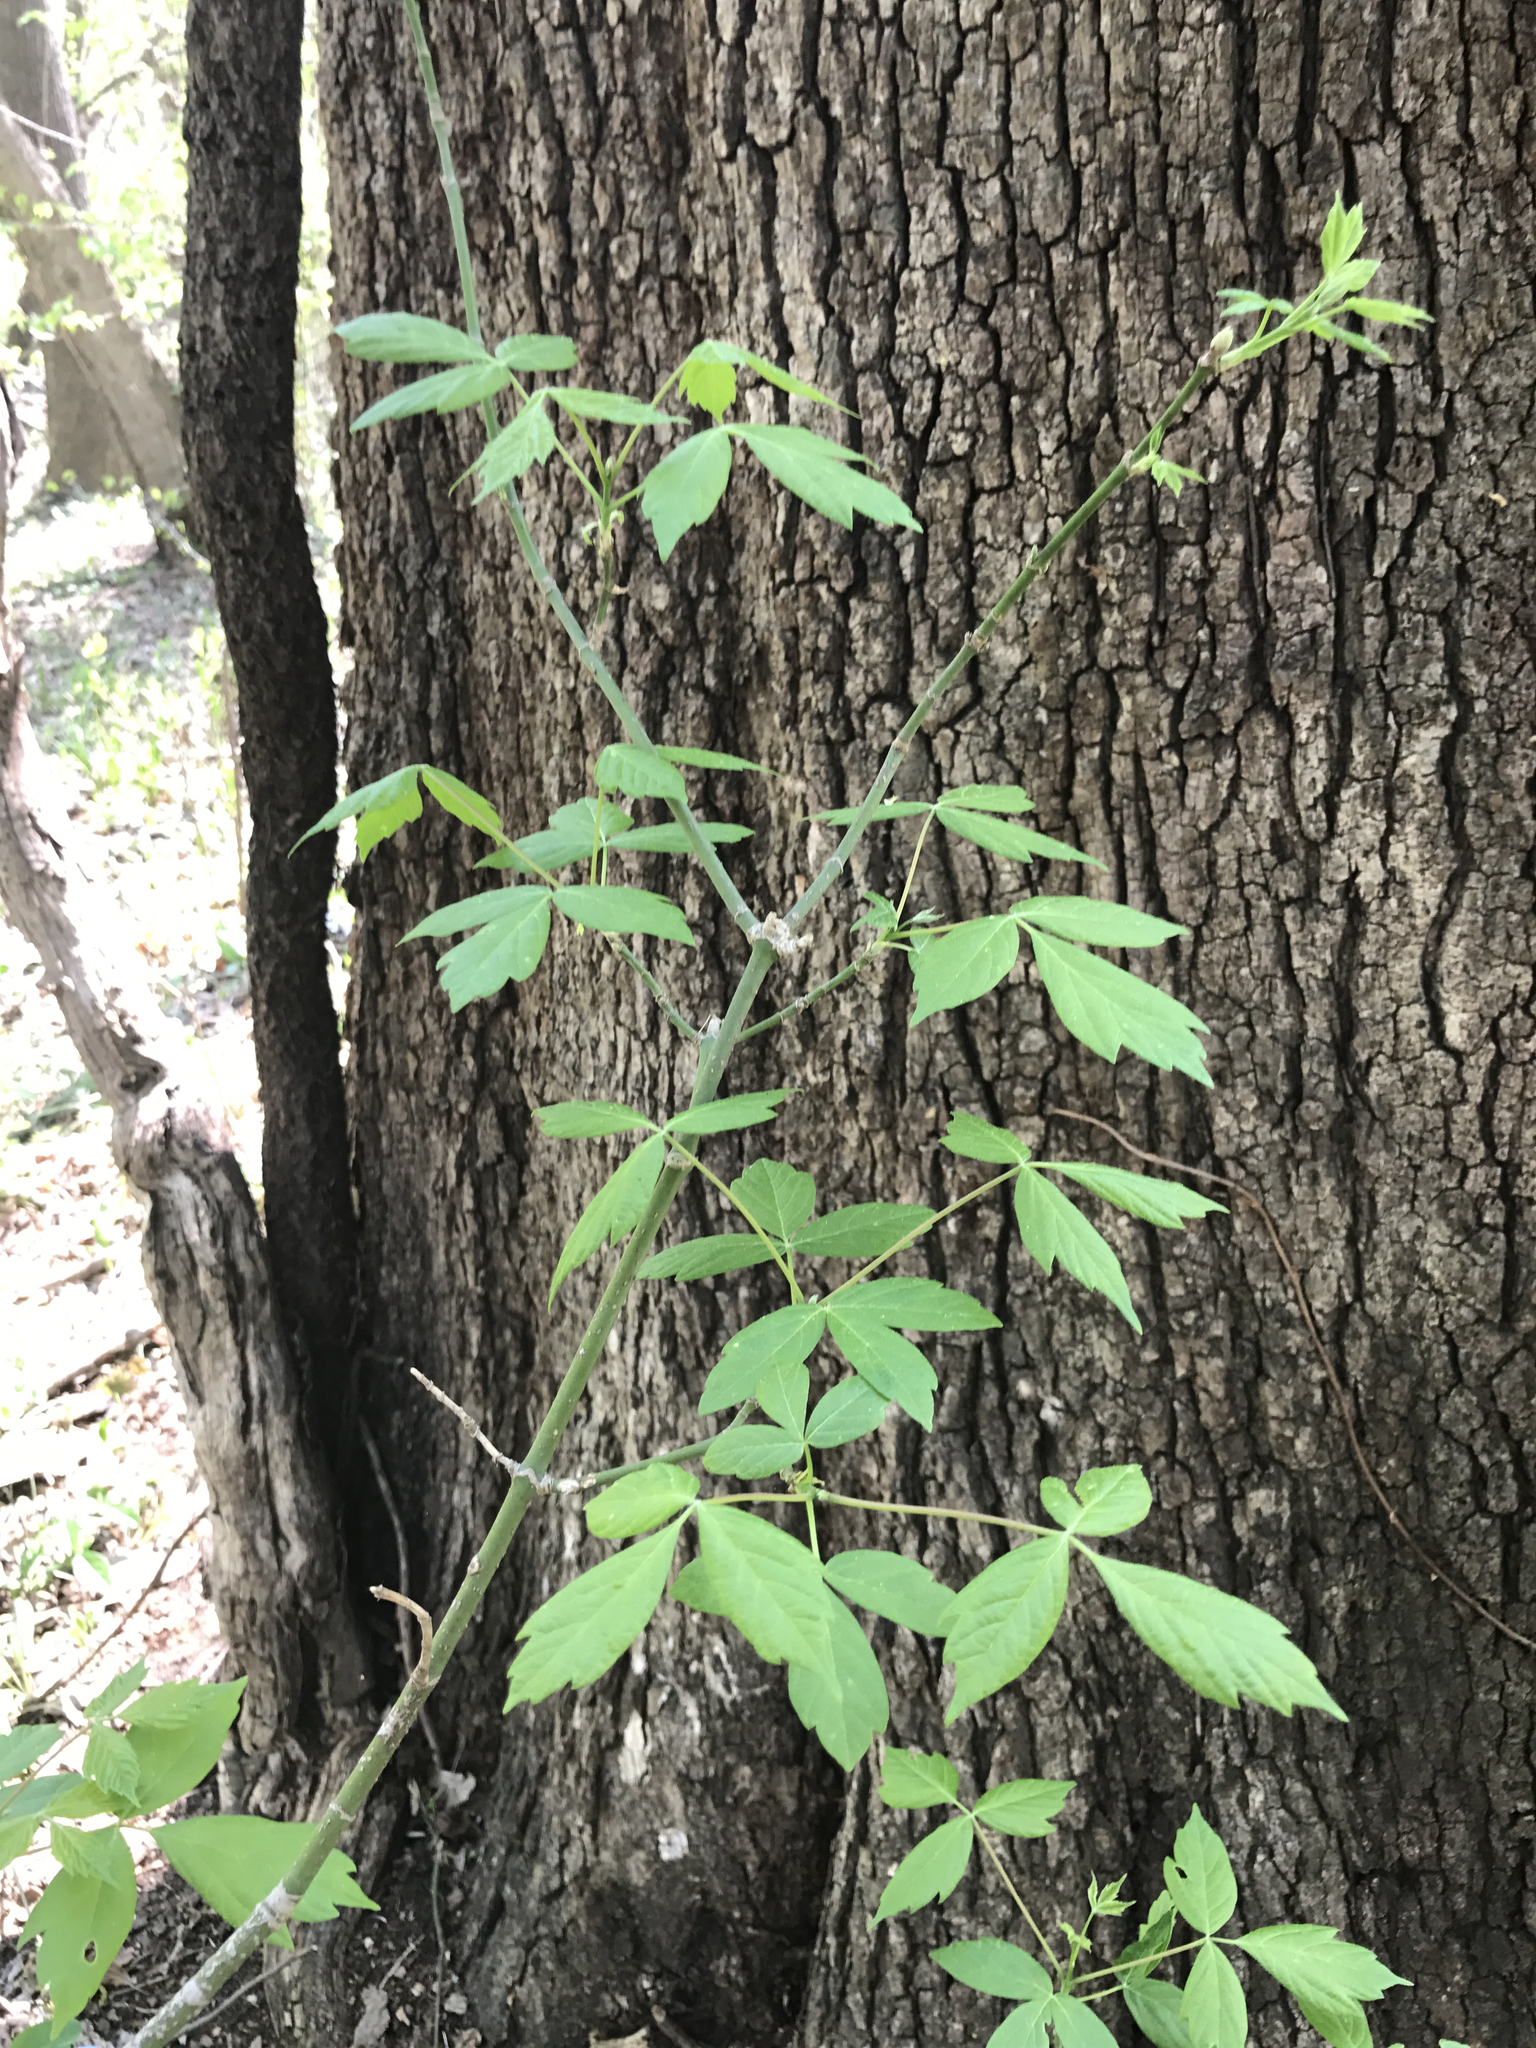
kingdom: Plantae
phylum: Tracheophyta
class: Magnoliopsida
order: Sapindales
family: Sapindaceae
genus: Acer
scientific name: Acer negundo
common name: Ashleaf maple
